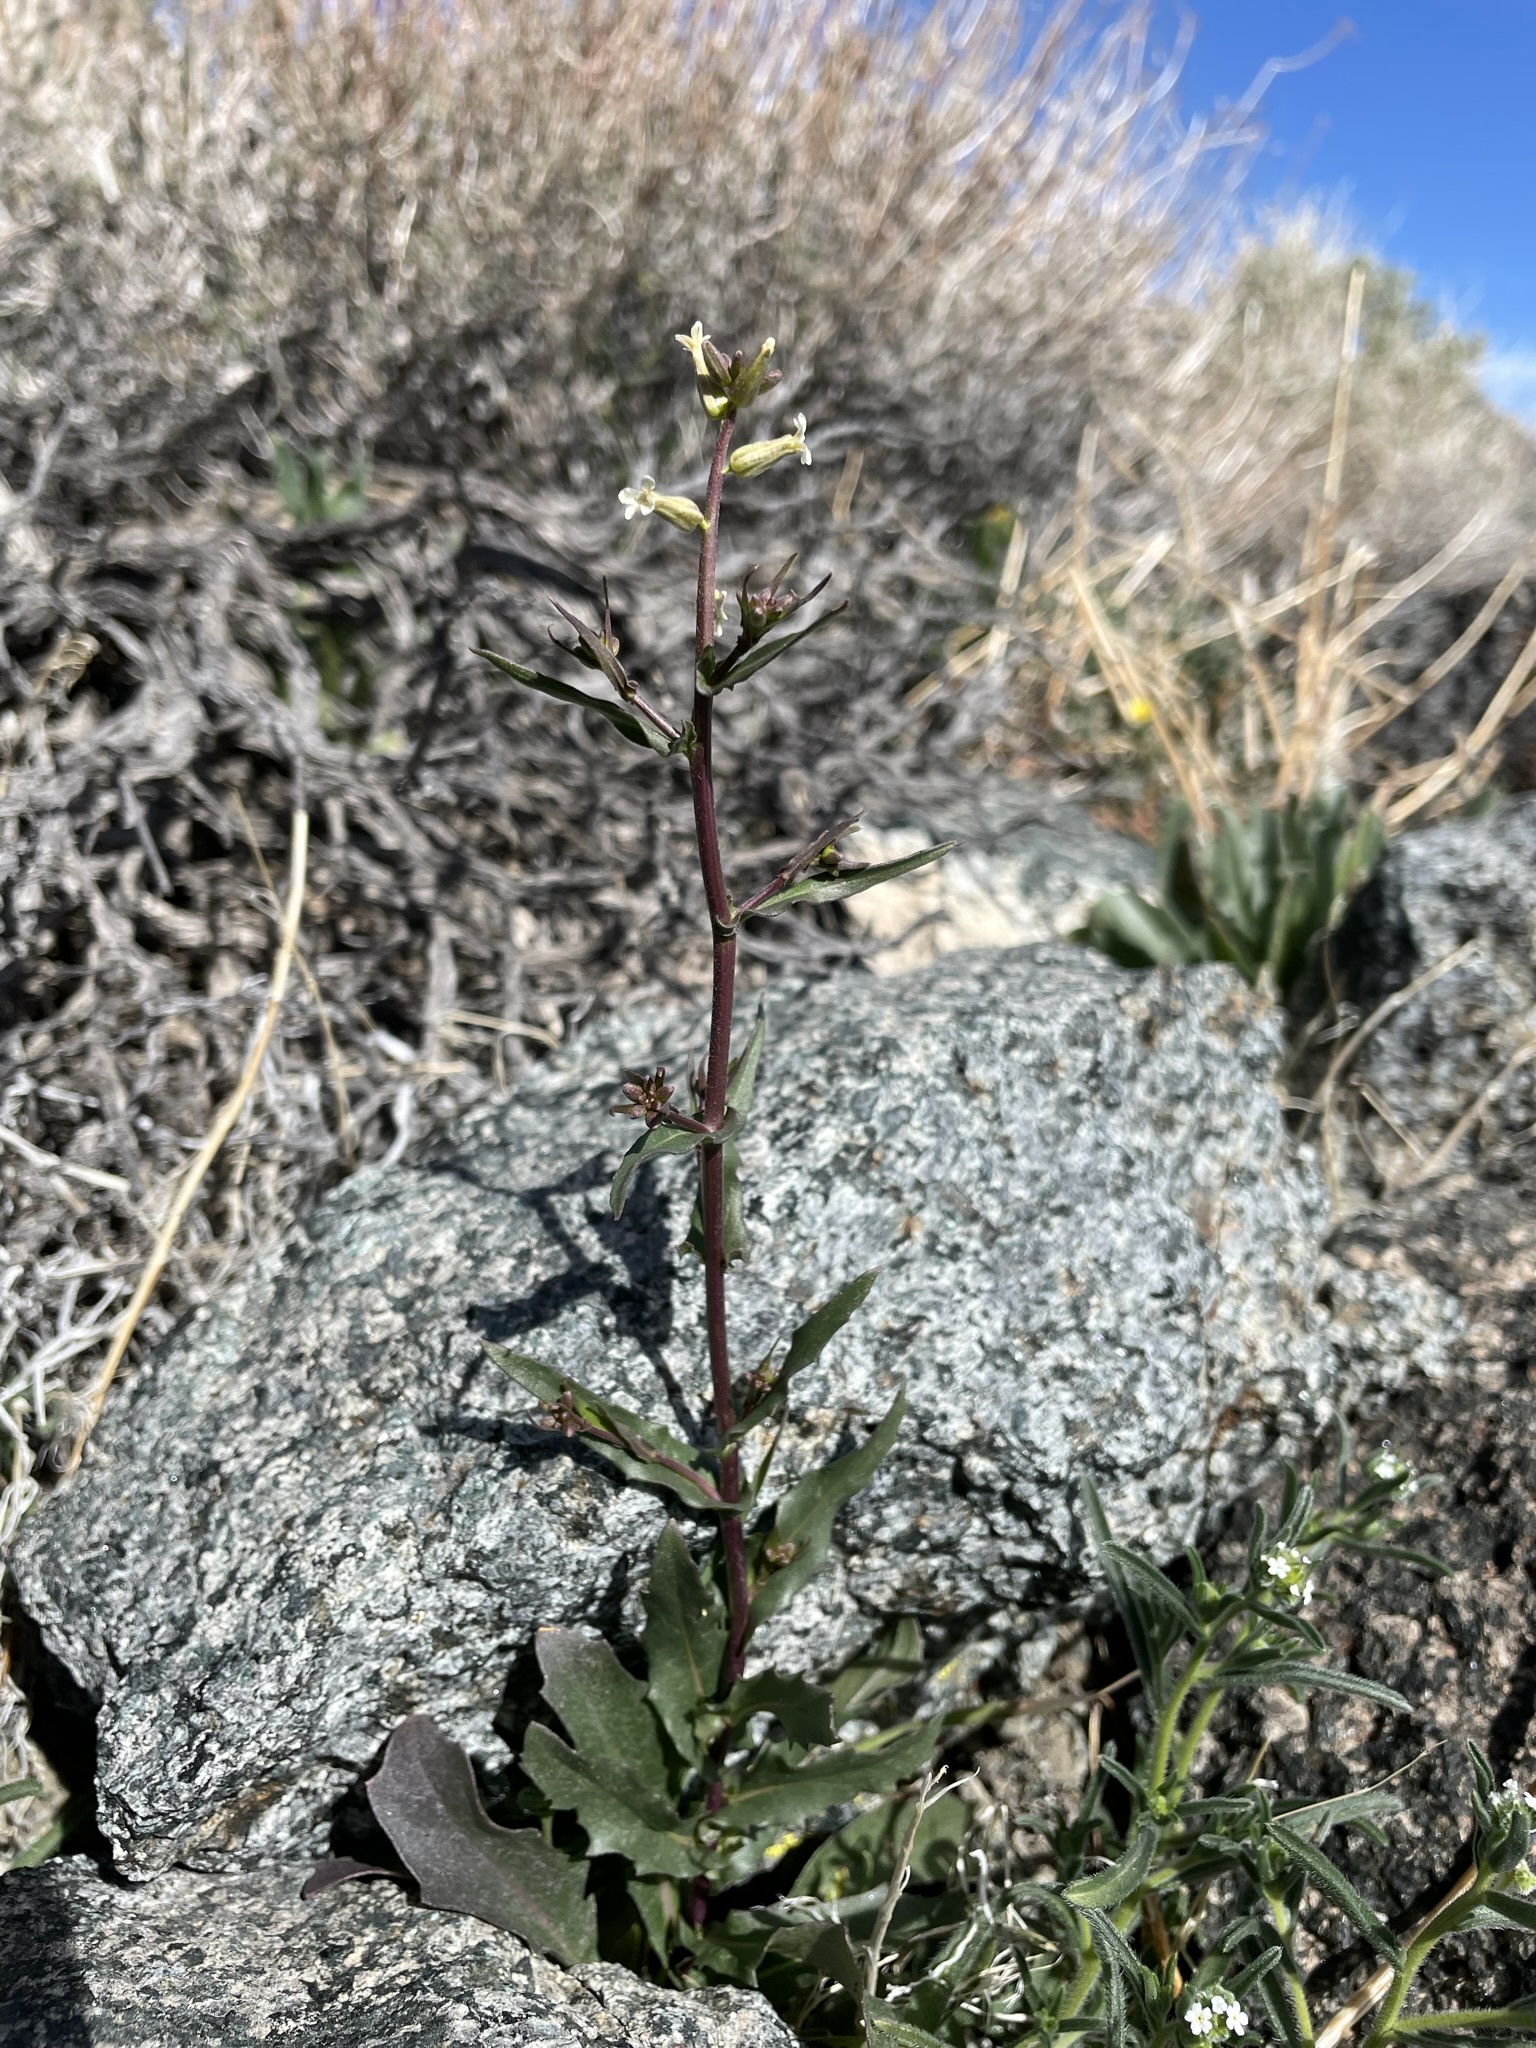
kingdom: Plantae
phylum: Tracheophyta
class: Magnoliopsida
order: Brassicales
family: Brassicaceae
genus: Streptanthus
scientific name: Streptanthus cooperi
